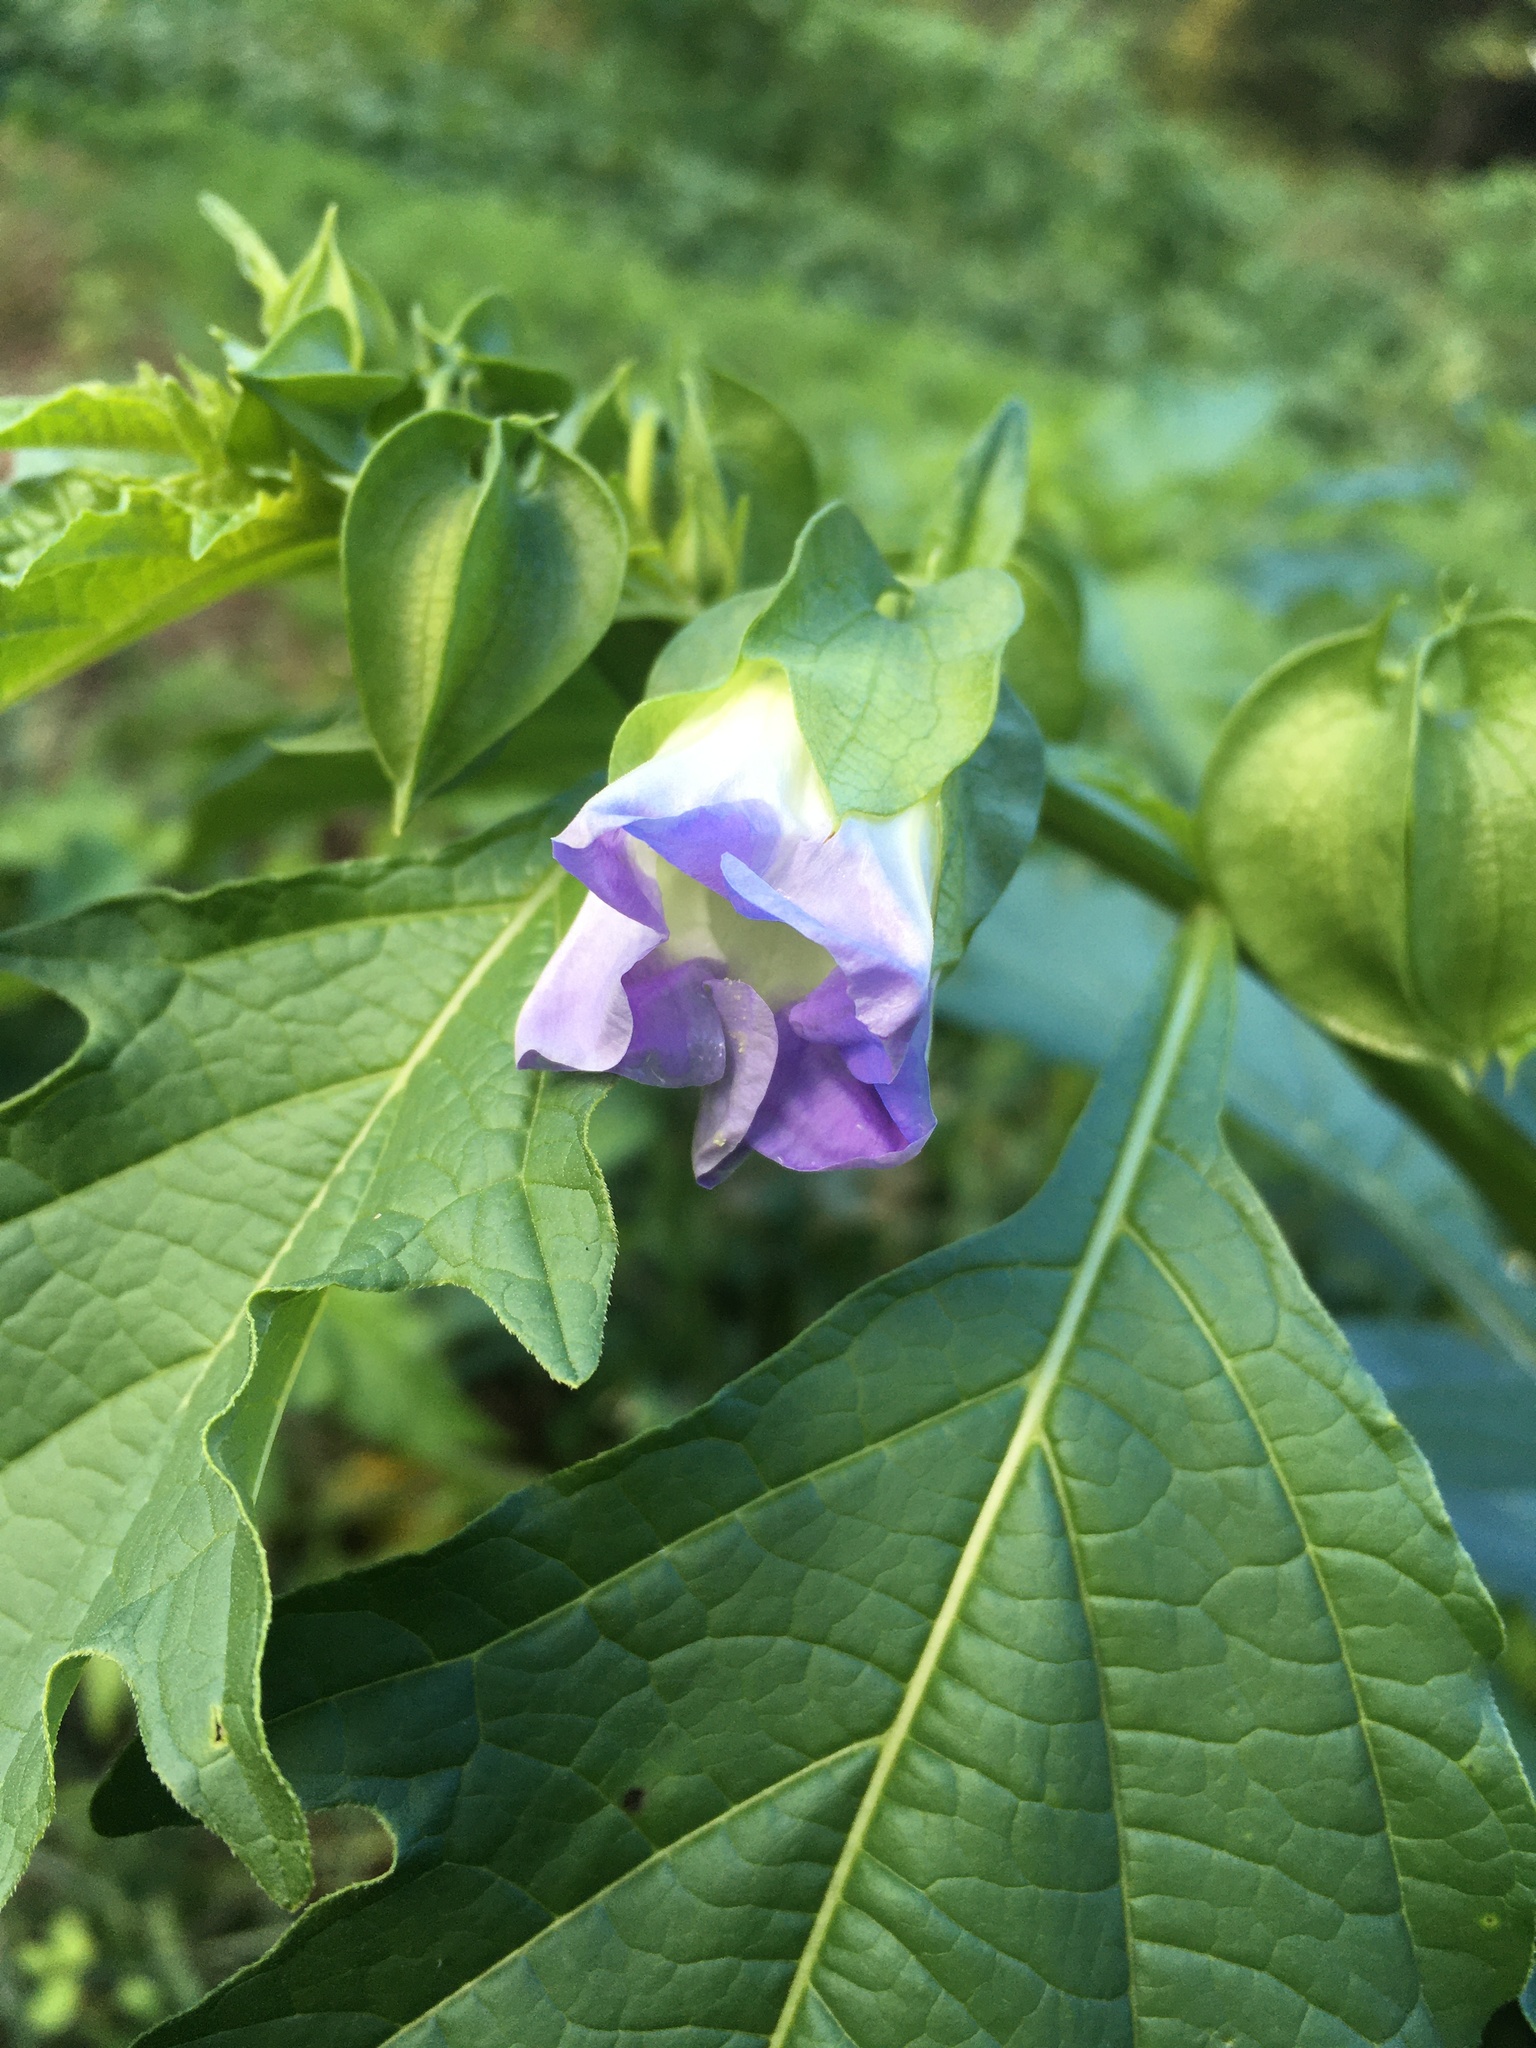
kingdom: Plantae
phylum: Tracheophyta
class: Magnoliopsida
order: Solanales
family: Solanaceae
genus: Nicandra
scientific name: Nicandra physalodes
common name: Apple-of-peru
